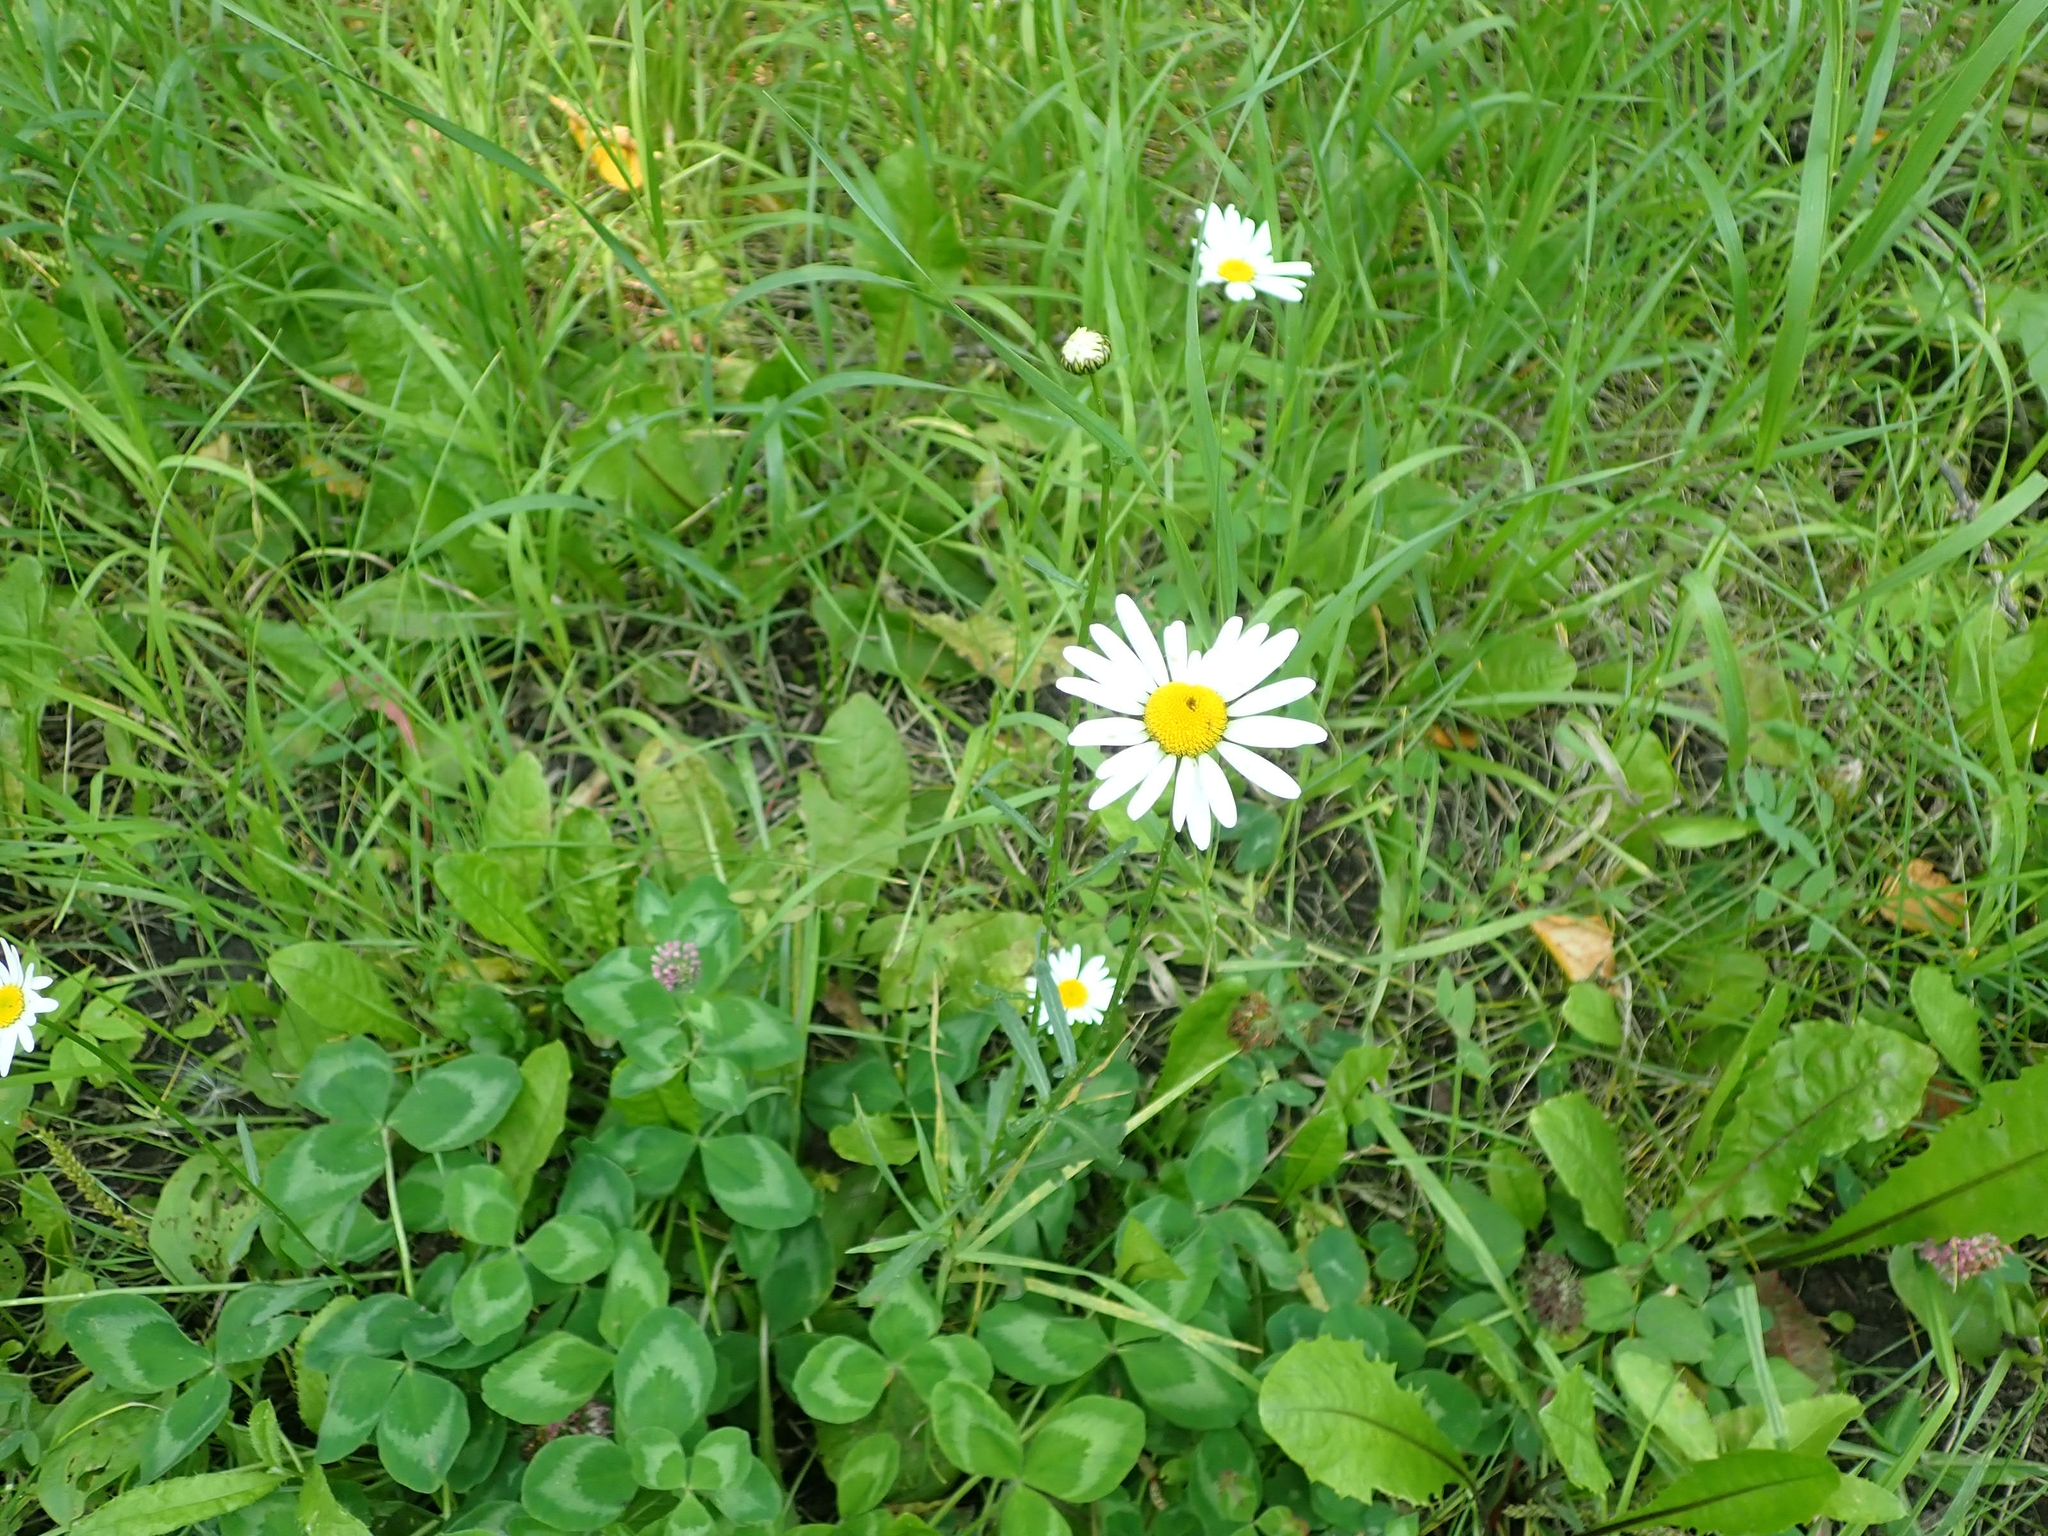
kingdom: Plantae
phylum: Tracheophyta
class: Magnoliopsida
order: Asterales
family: Asteraceae
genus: Leucanthemum
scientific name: Leucanthemum vulgare
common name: Oxeye daisy
